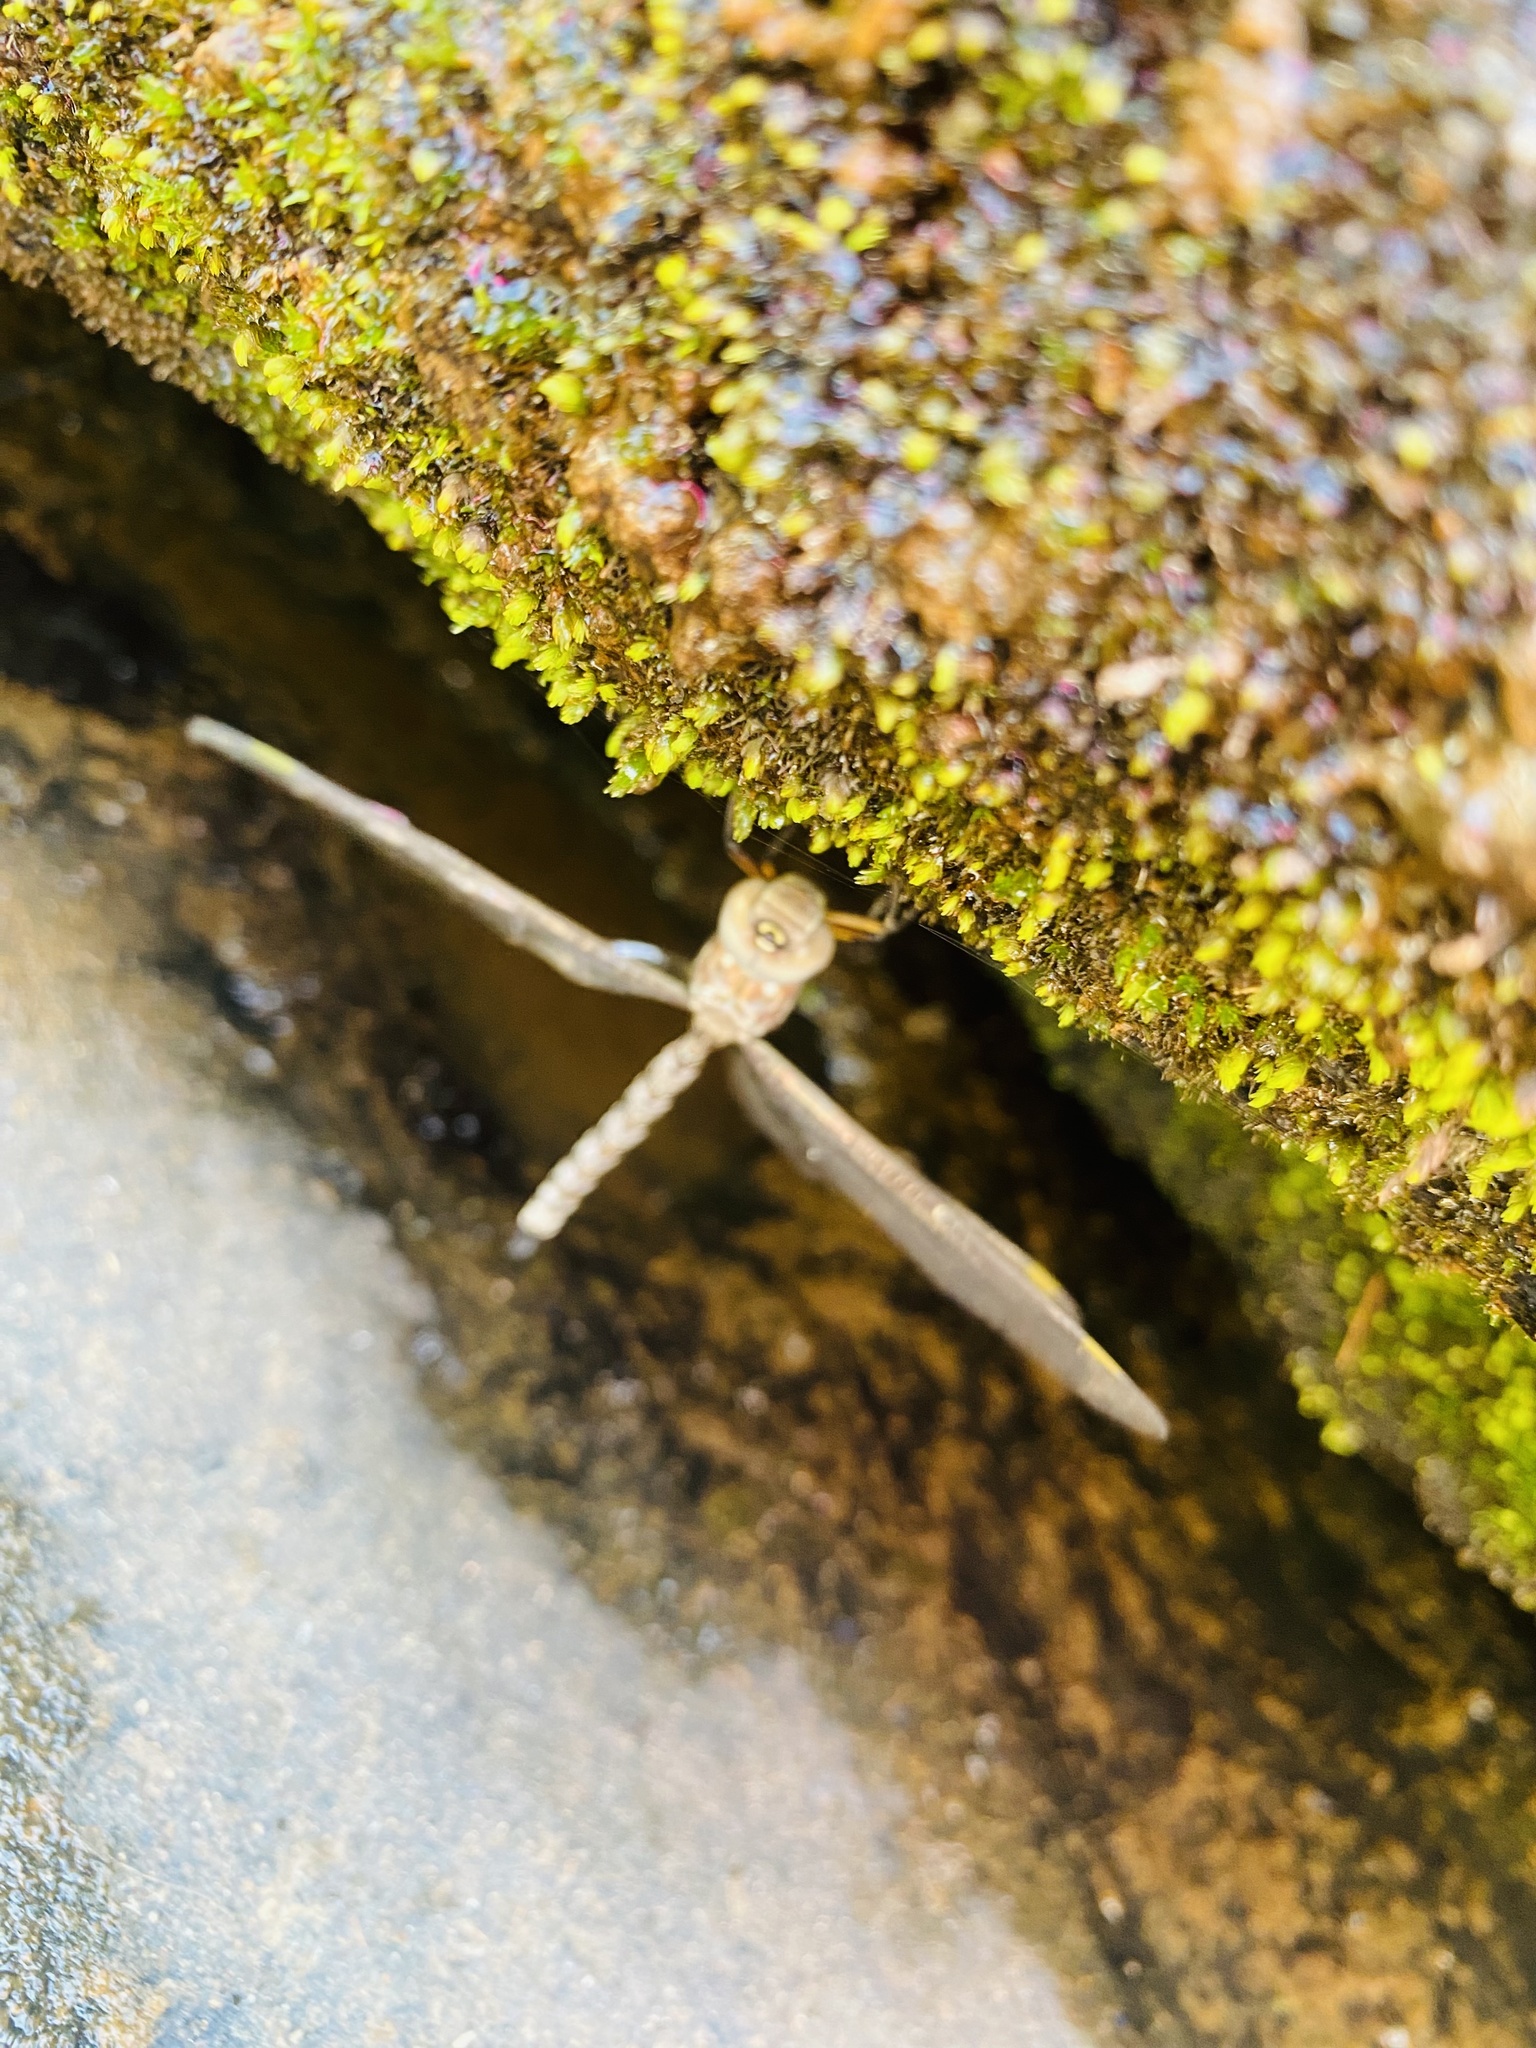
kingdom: Animalia
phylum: Arthropoda
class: Insecta
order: Odonata
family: Aeshnidae
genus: Pinheyschna
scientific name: Pinheyschna subpupillata
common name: Stream hawker
